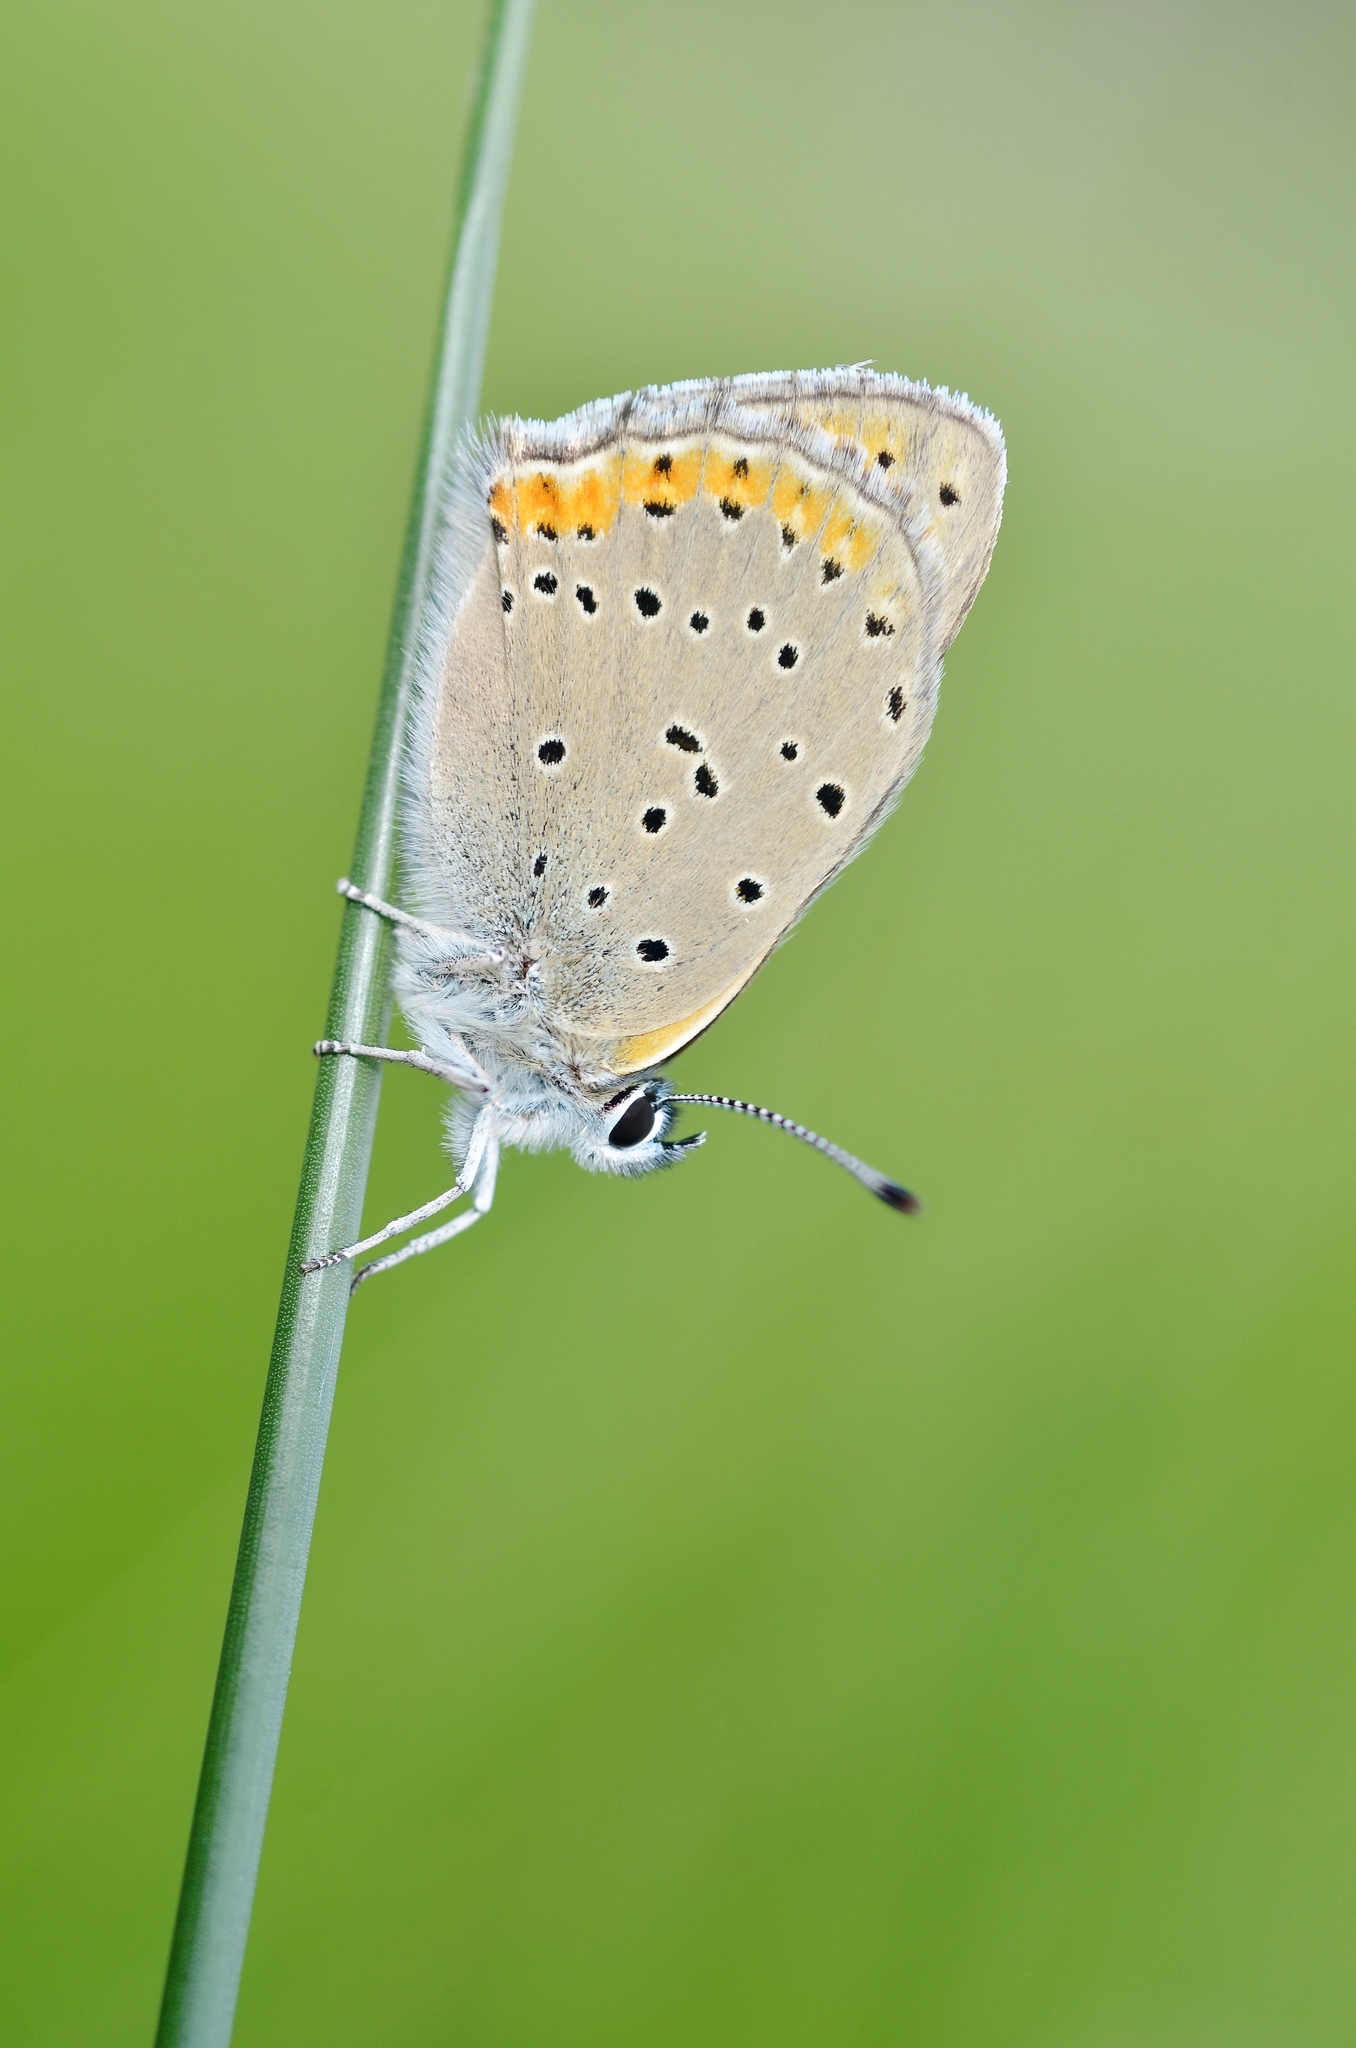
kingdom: Animalia
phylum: Arthropoda
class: Insecta
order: Lepidoptera
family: Lycaenidae
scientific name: Lycaenidae
